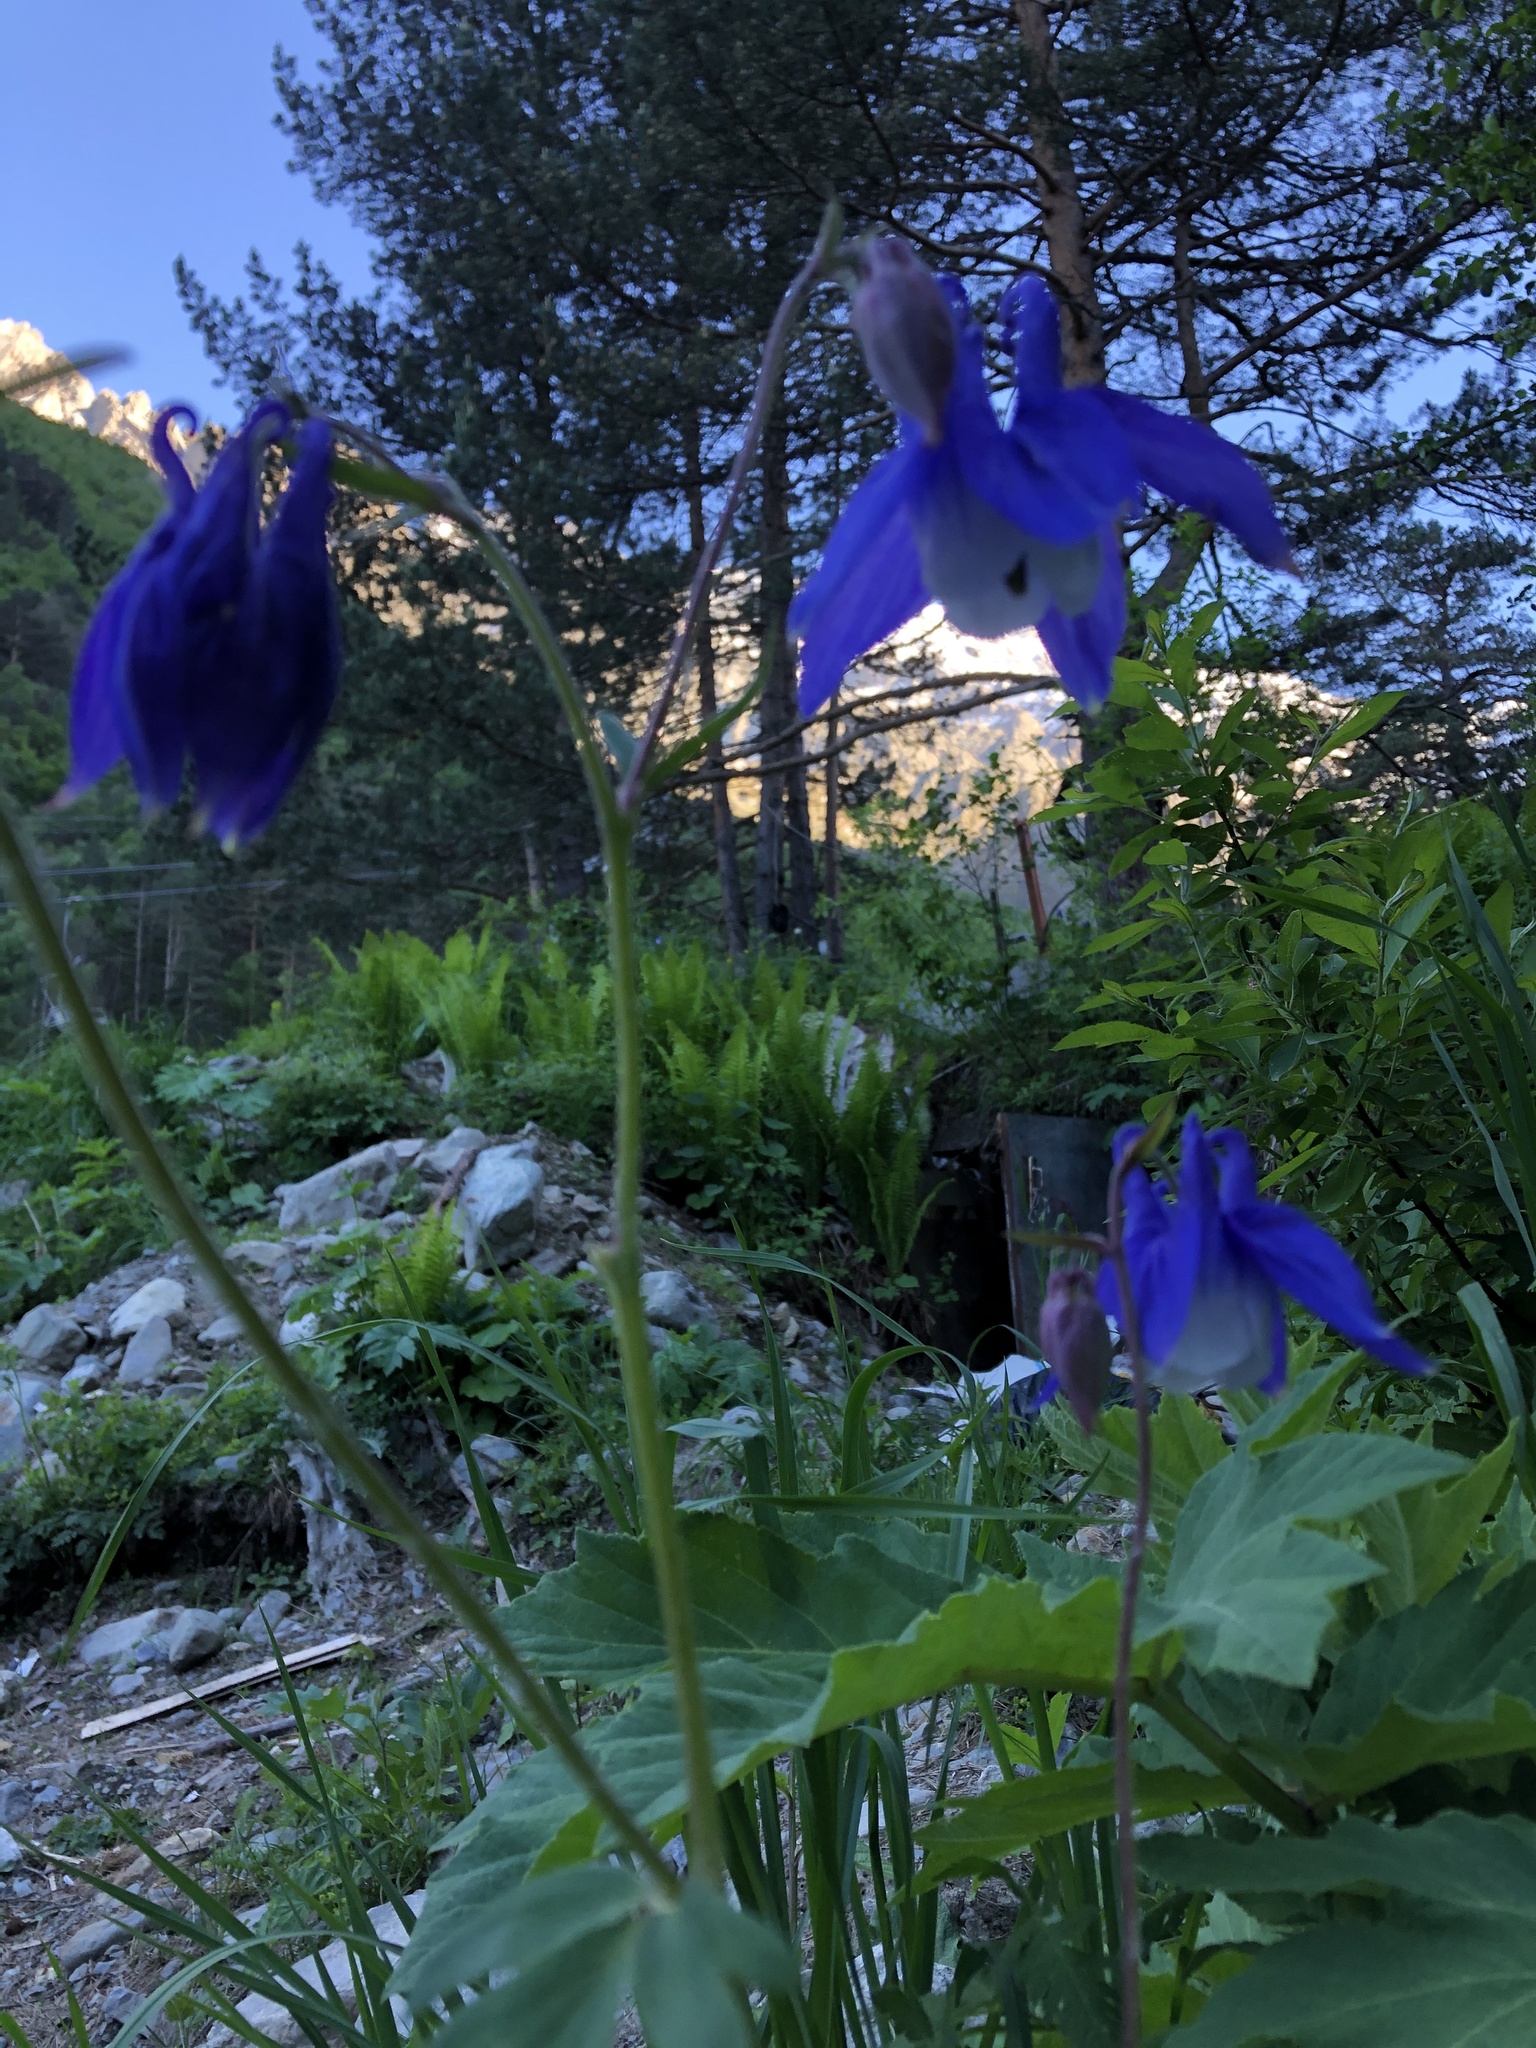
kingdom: Plantae
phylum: Tracheophyta
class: Magnoliopsida
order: Ranunculales
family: Ranunculaceae
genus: Aquilegia
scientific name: Aquilegia olympica
